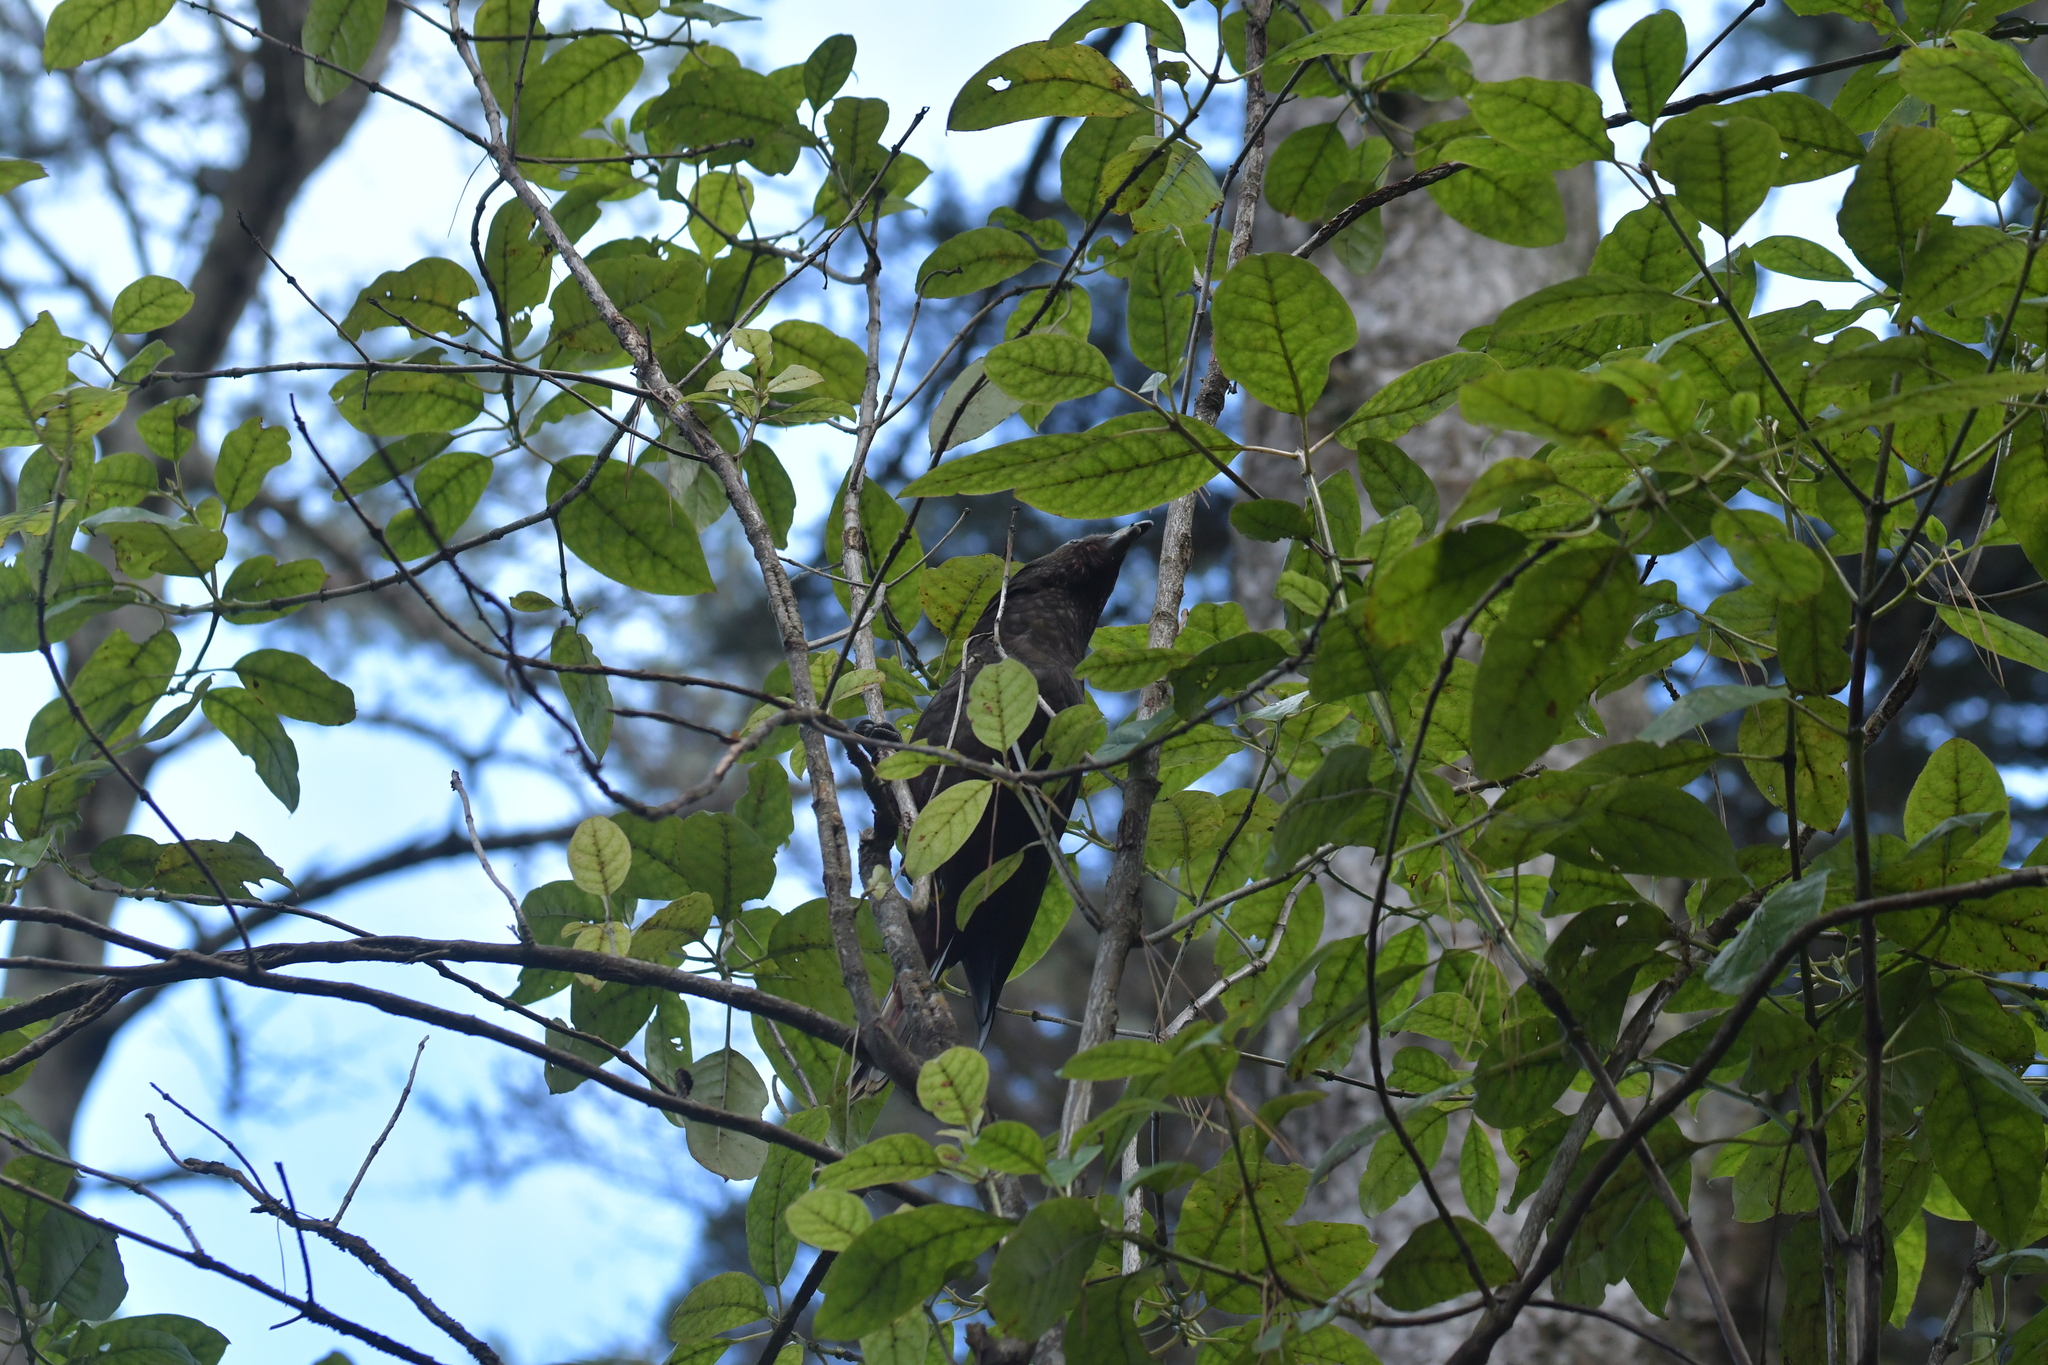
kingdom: Animalia
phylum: Chordata
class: Aves
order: Psittaciformes
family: Psittacidae
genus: Nestor
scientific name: Nestor meridionalis
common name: New zealand kaka
